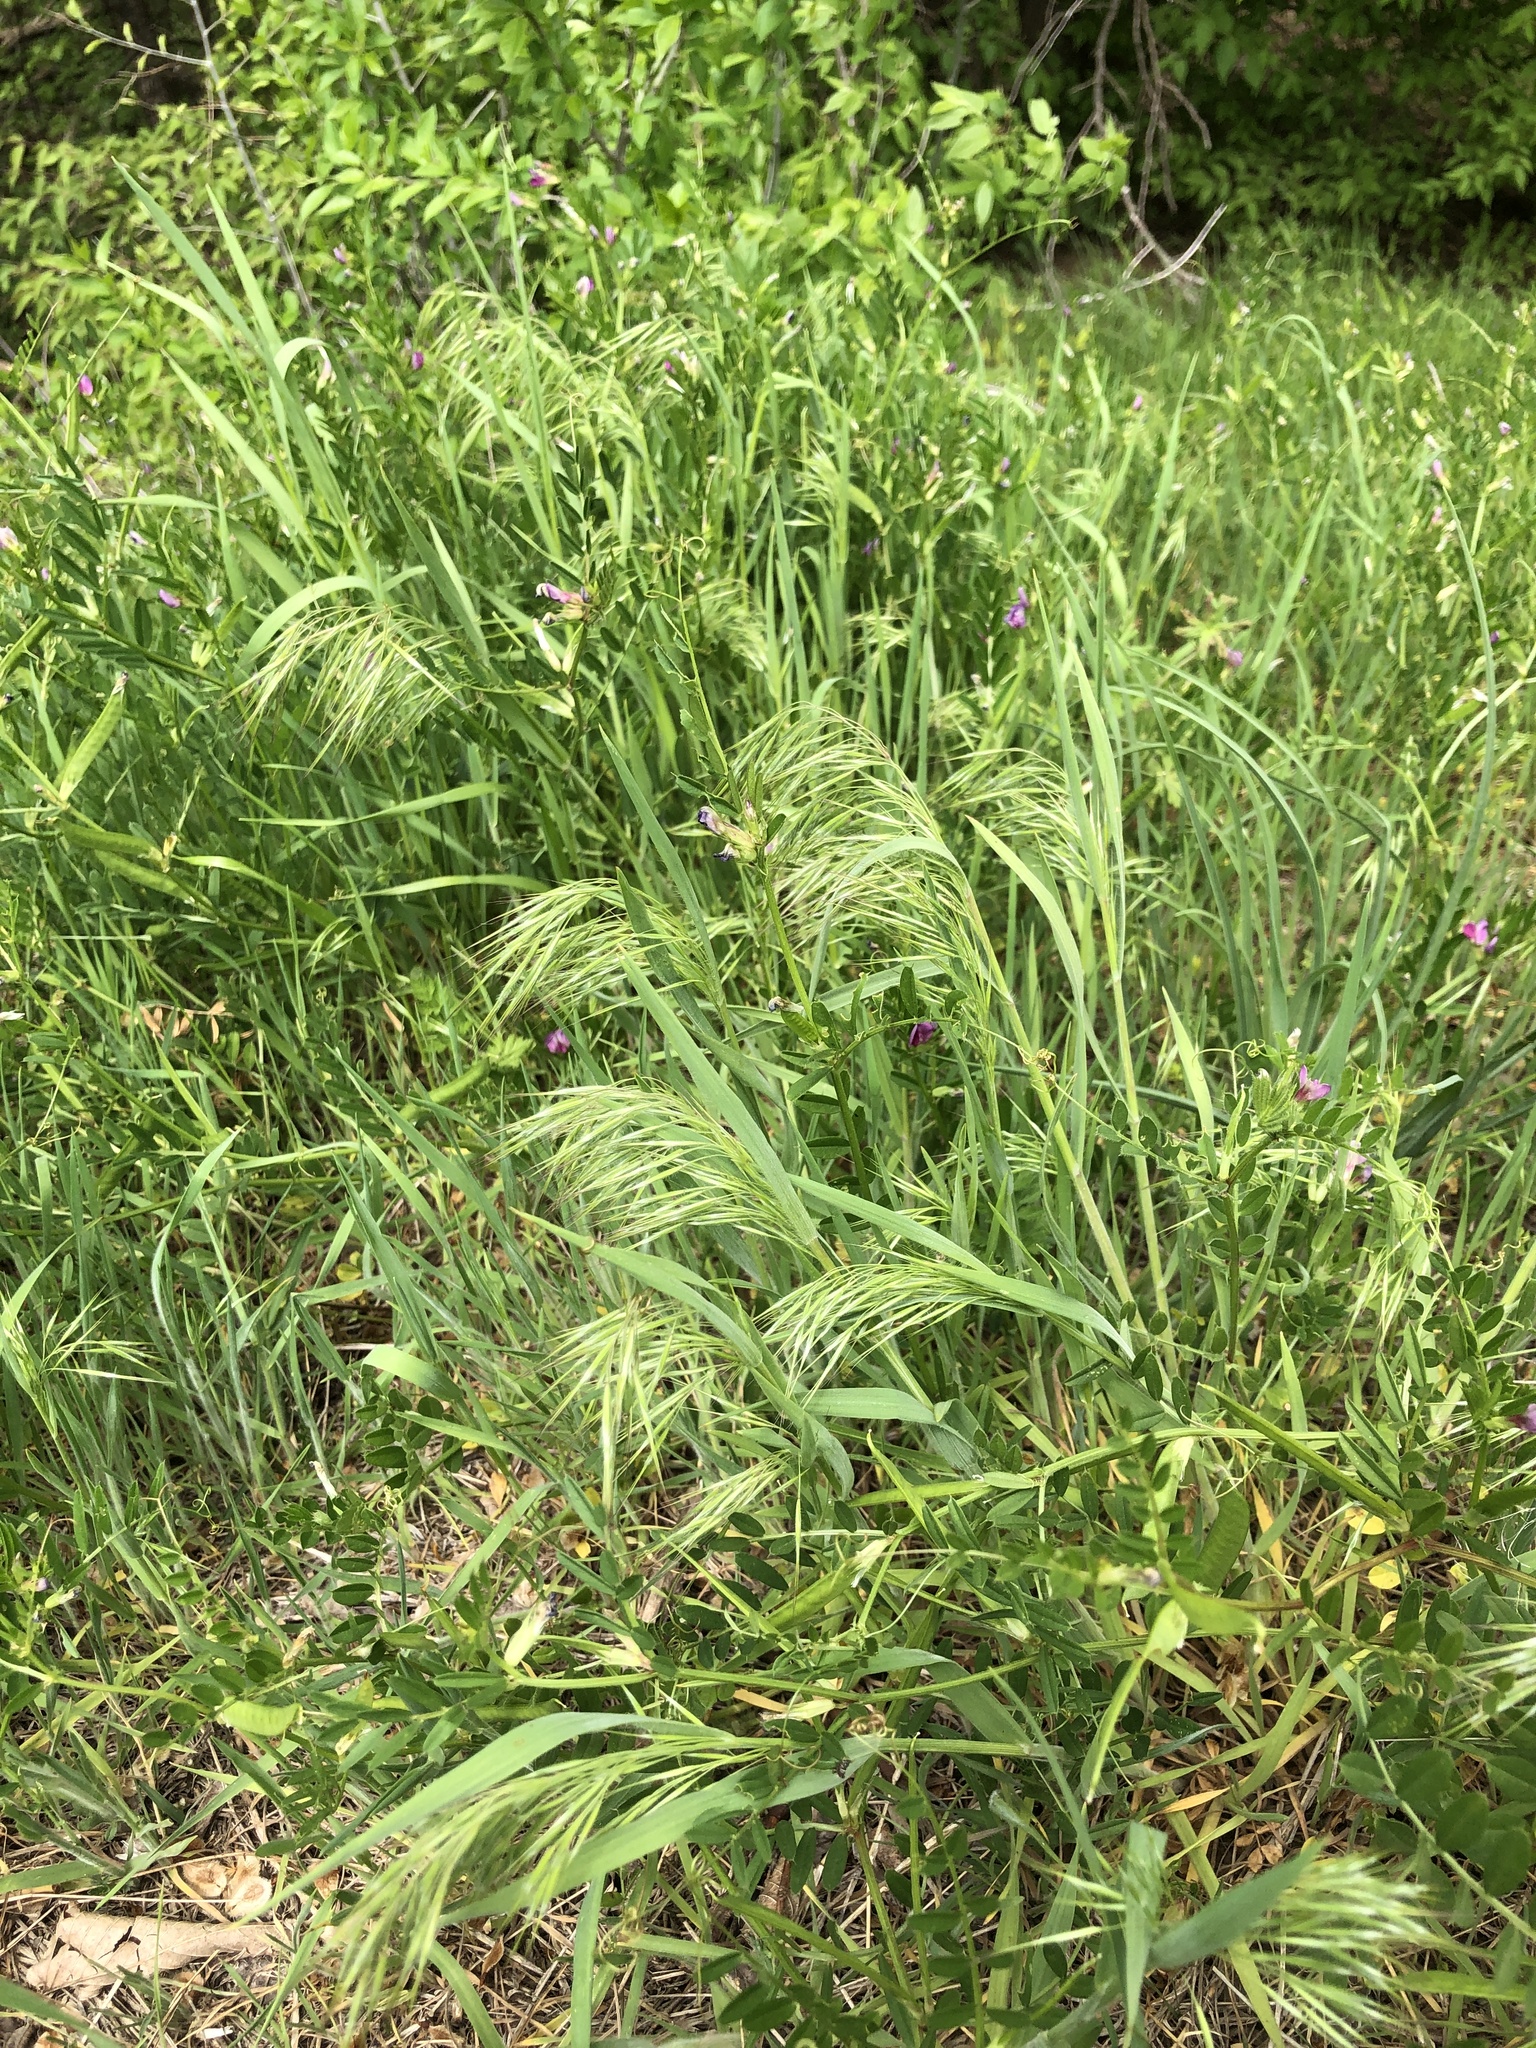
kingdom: Plantae
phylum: Tracheophyta
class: Liliopsida
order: Poales
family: Poaceae
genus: Bromus
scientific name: Bromus tectorum
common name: Cheatgrass
